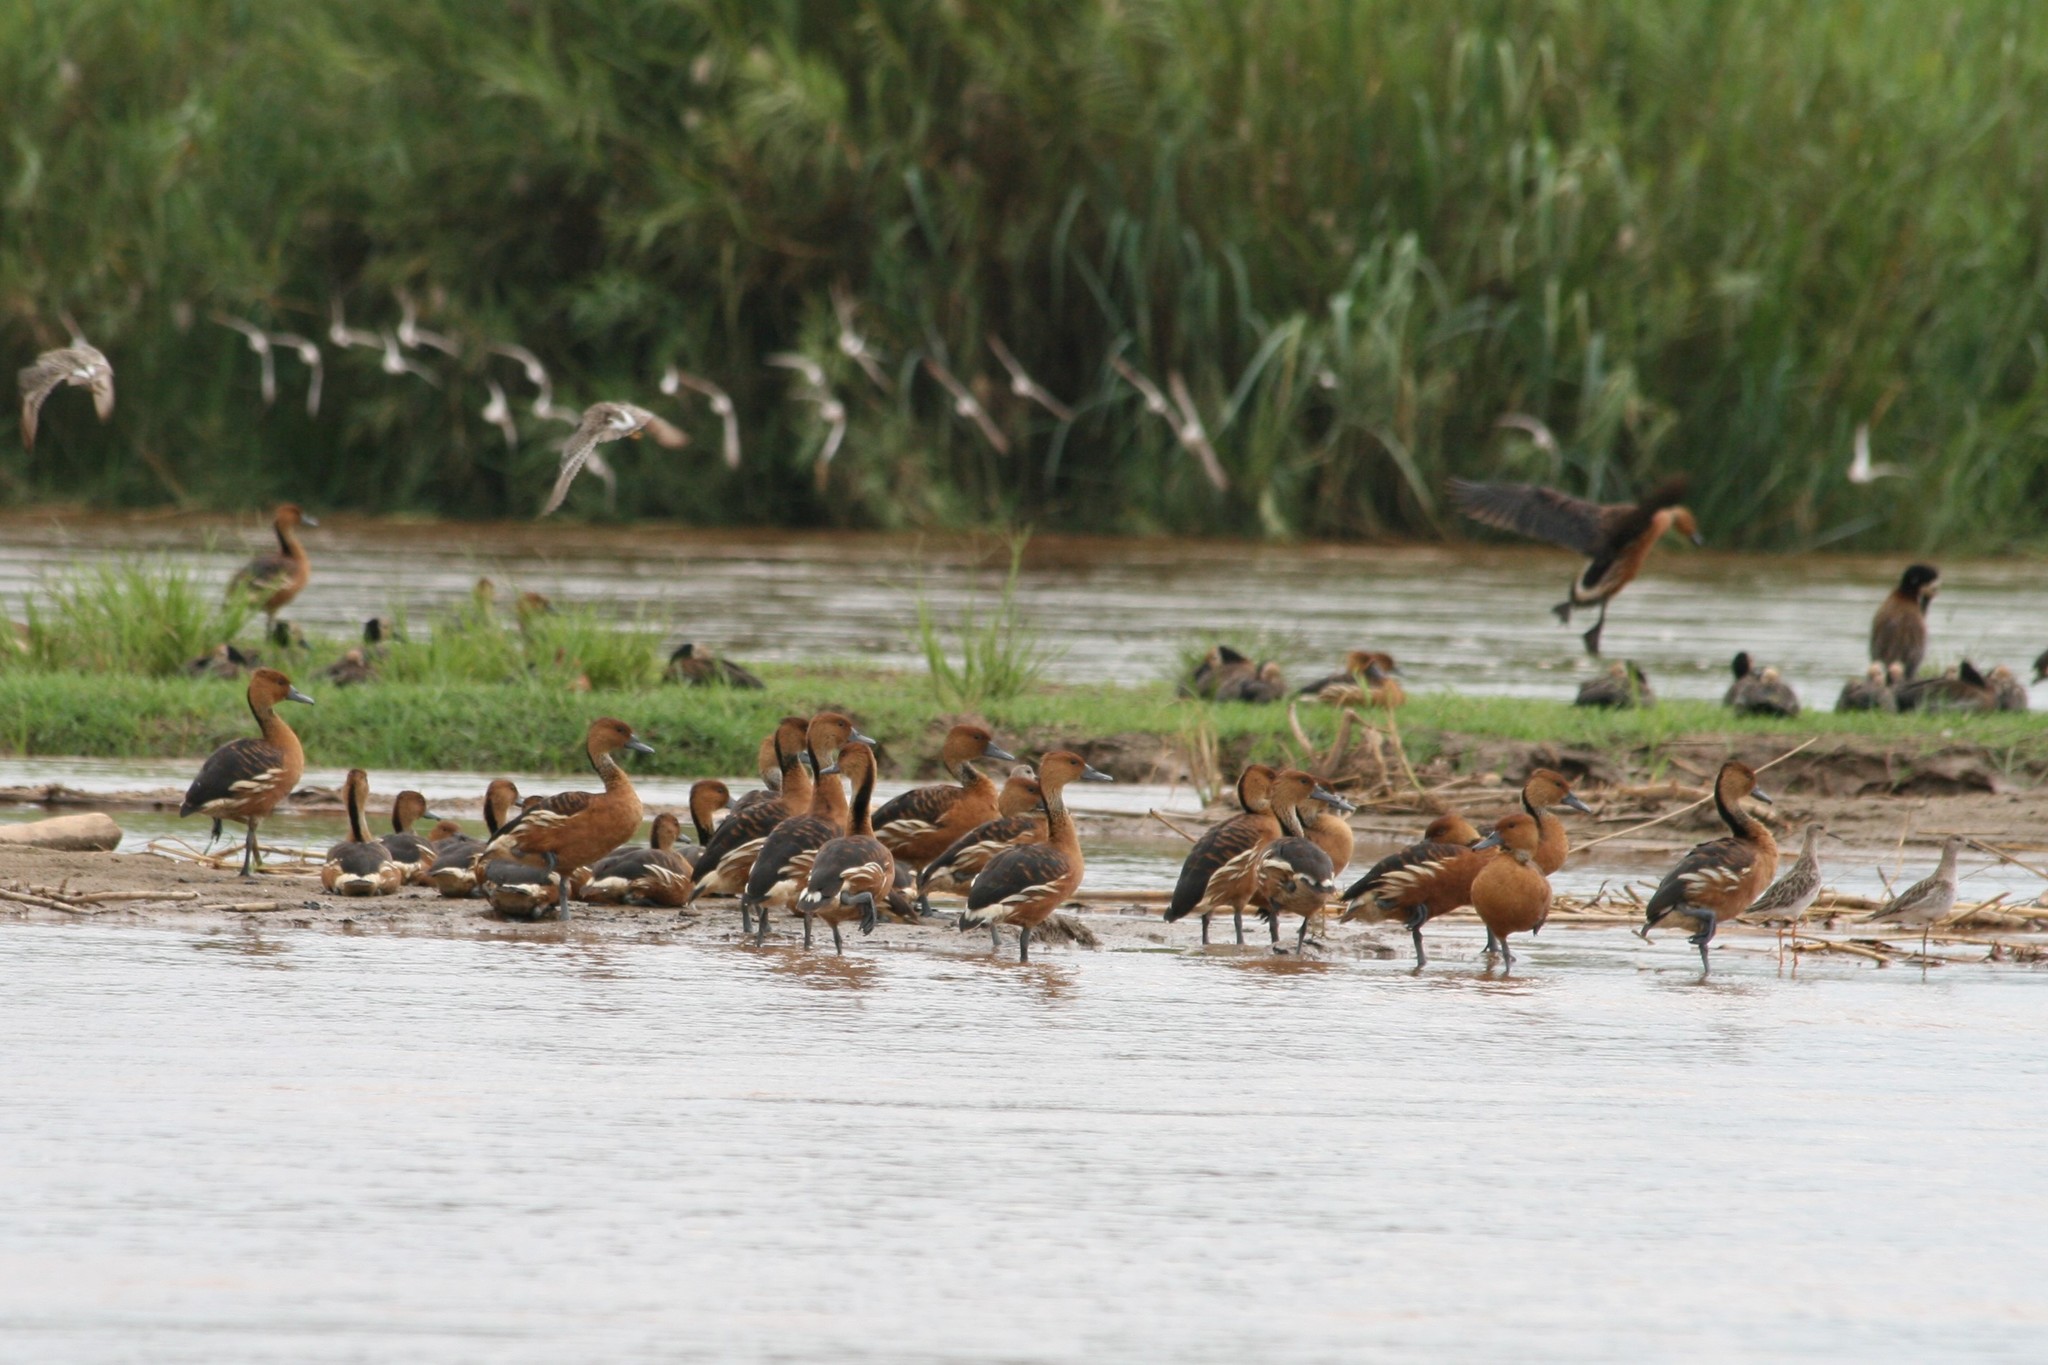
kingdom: Animalia
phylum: Chordata
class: Aves
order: Anseriformes
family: Anatidae
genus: Dendrocygna
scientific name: Dendrocygna bicolor
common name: Fulvous whistling duck
